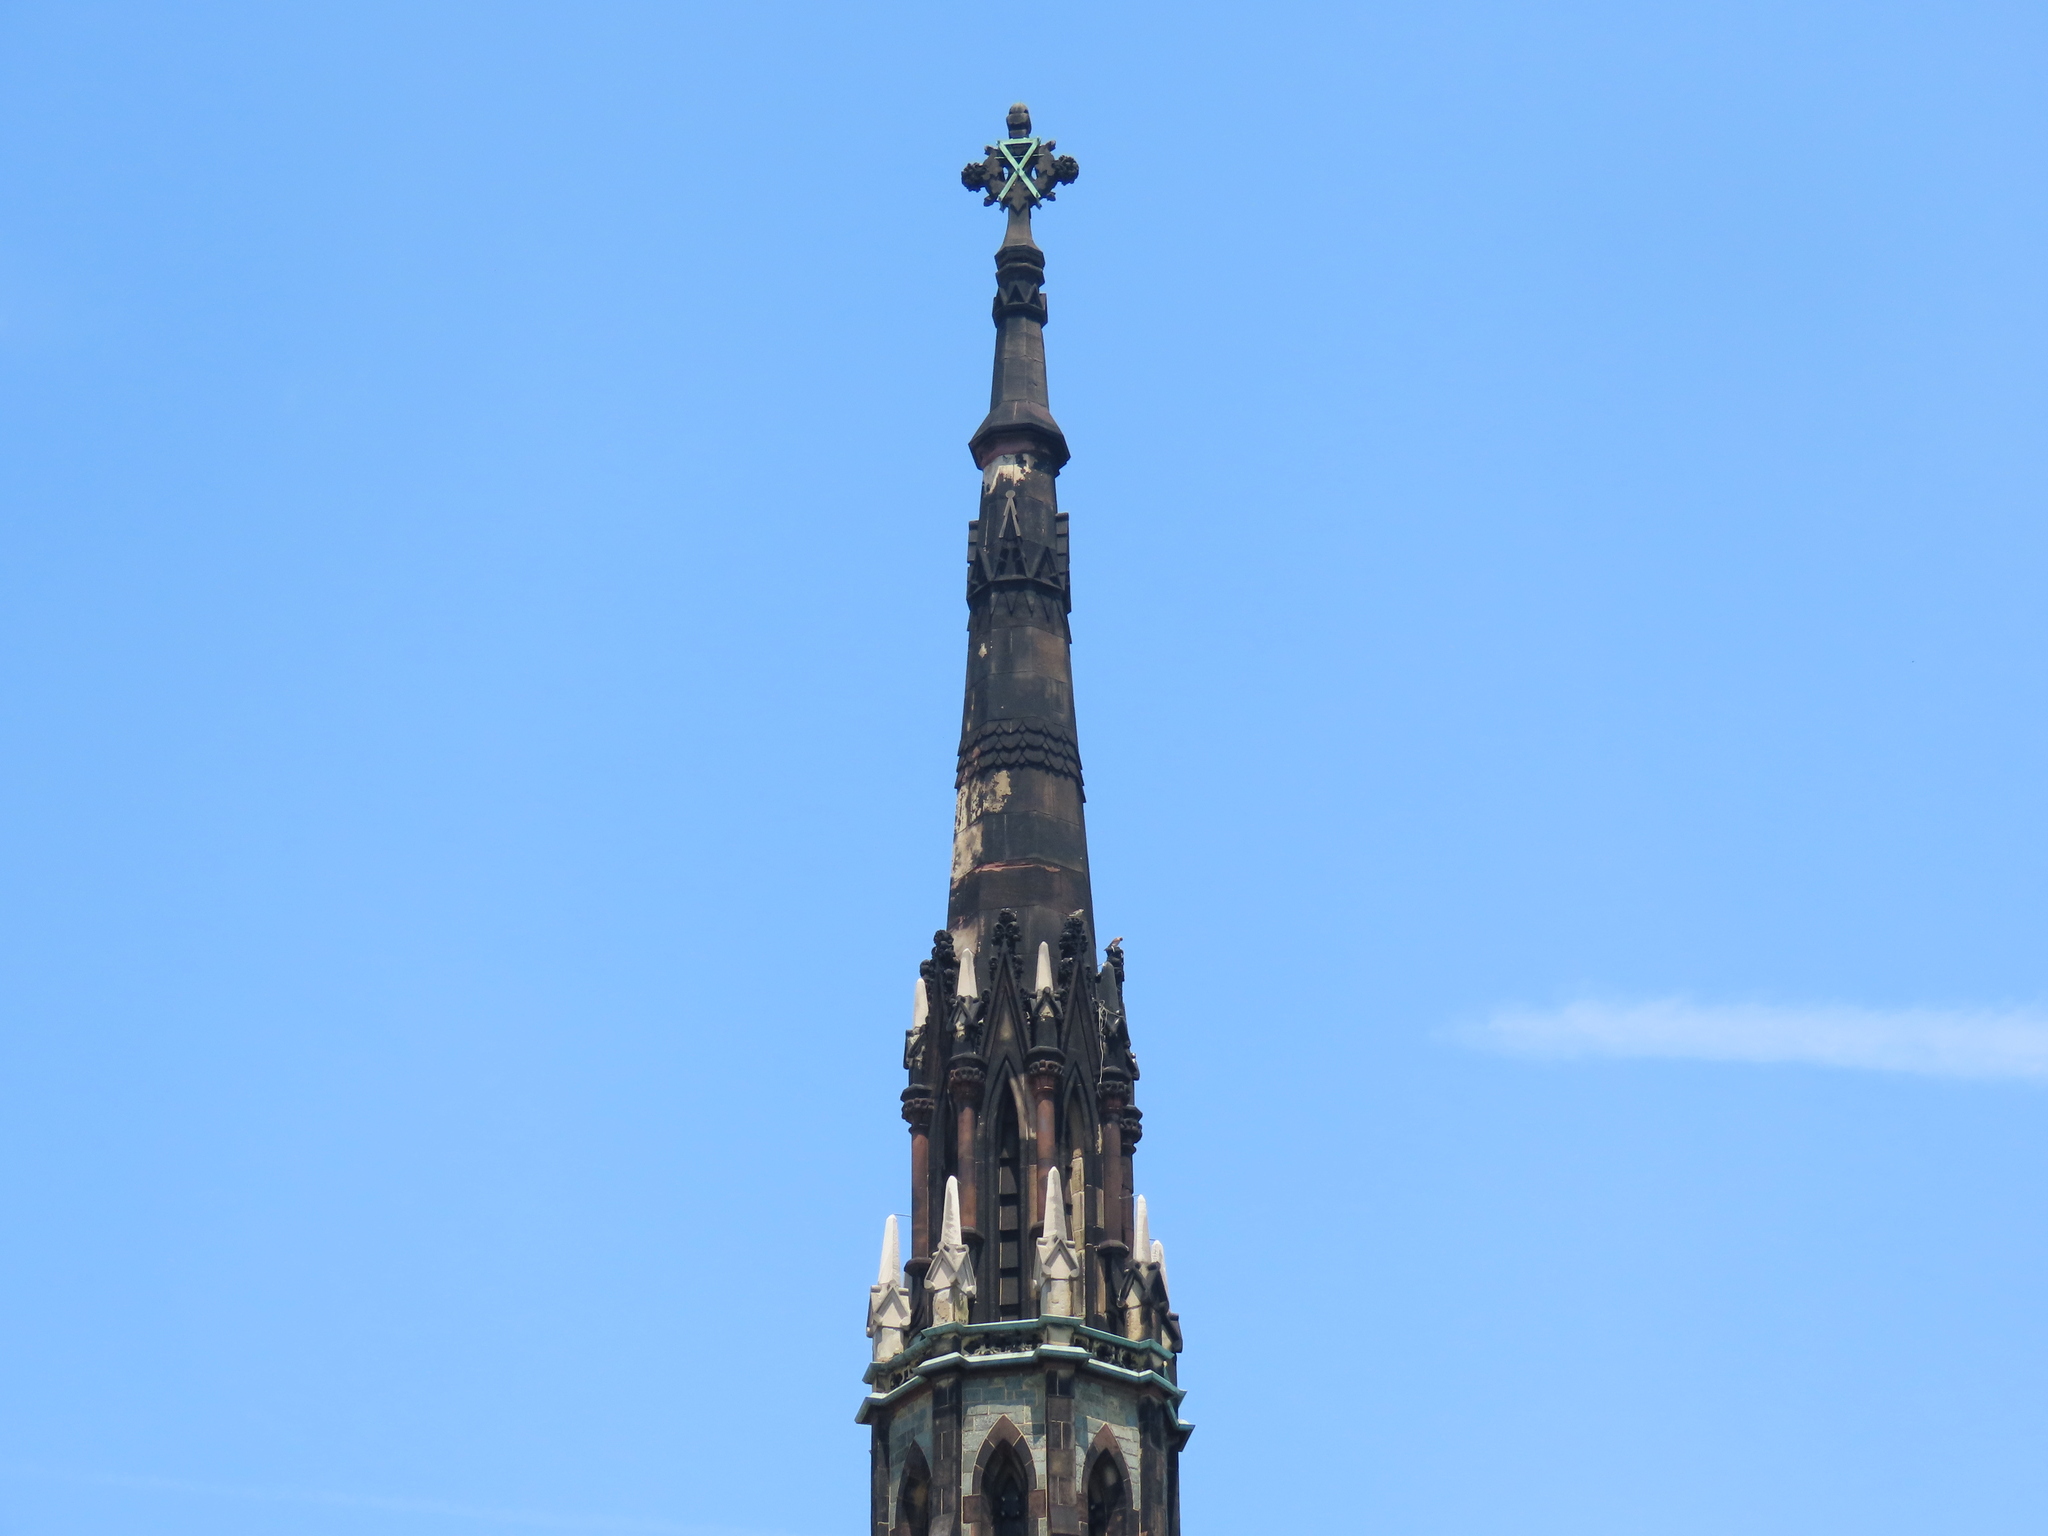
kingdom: Animalia
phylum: Chordata
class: Aves
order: Falconiformes
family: Falconidae
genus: Falco
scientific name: Falco sparverius
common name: American kestrel
